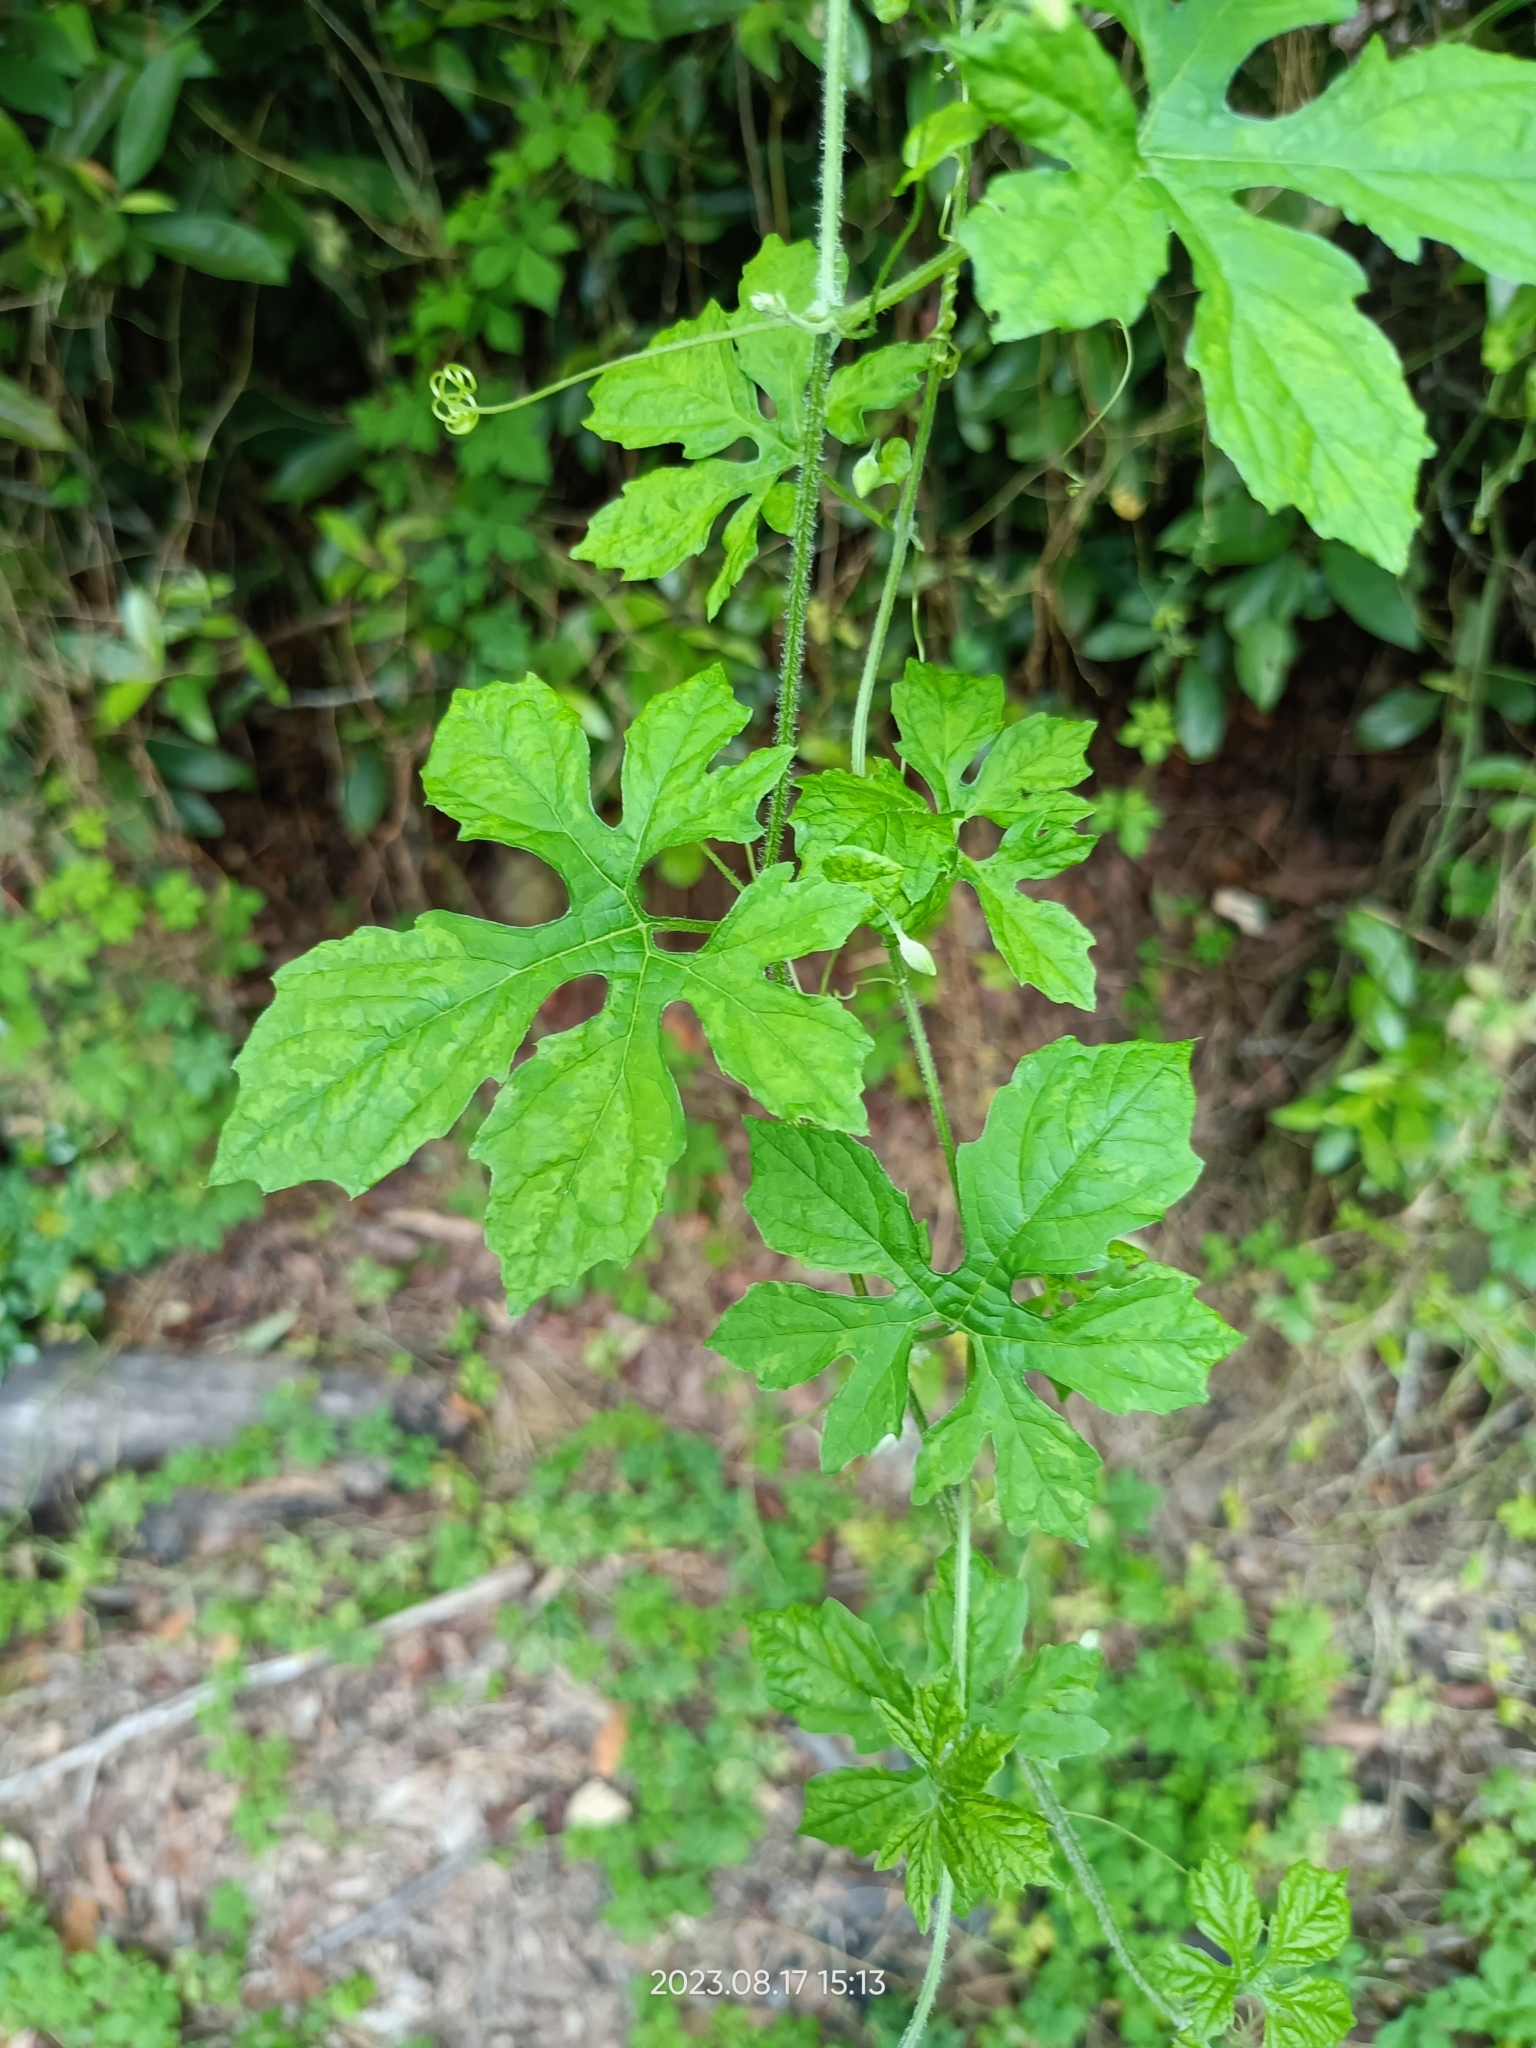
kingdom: Plantae
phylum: Tracheophyta
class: Magnoliopsida
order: Cucurbitales
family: Cucurbitaceae
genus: Momordica
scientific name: Momordica charantia
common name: Balsampear
